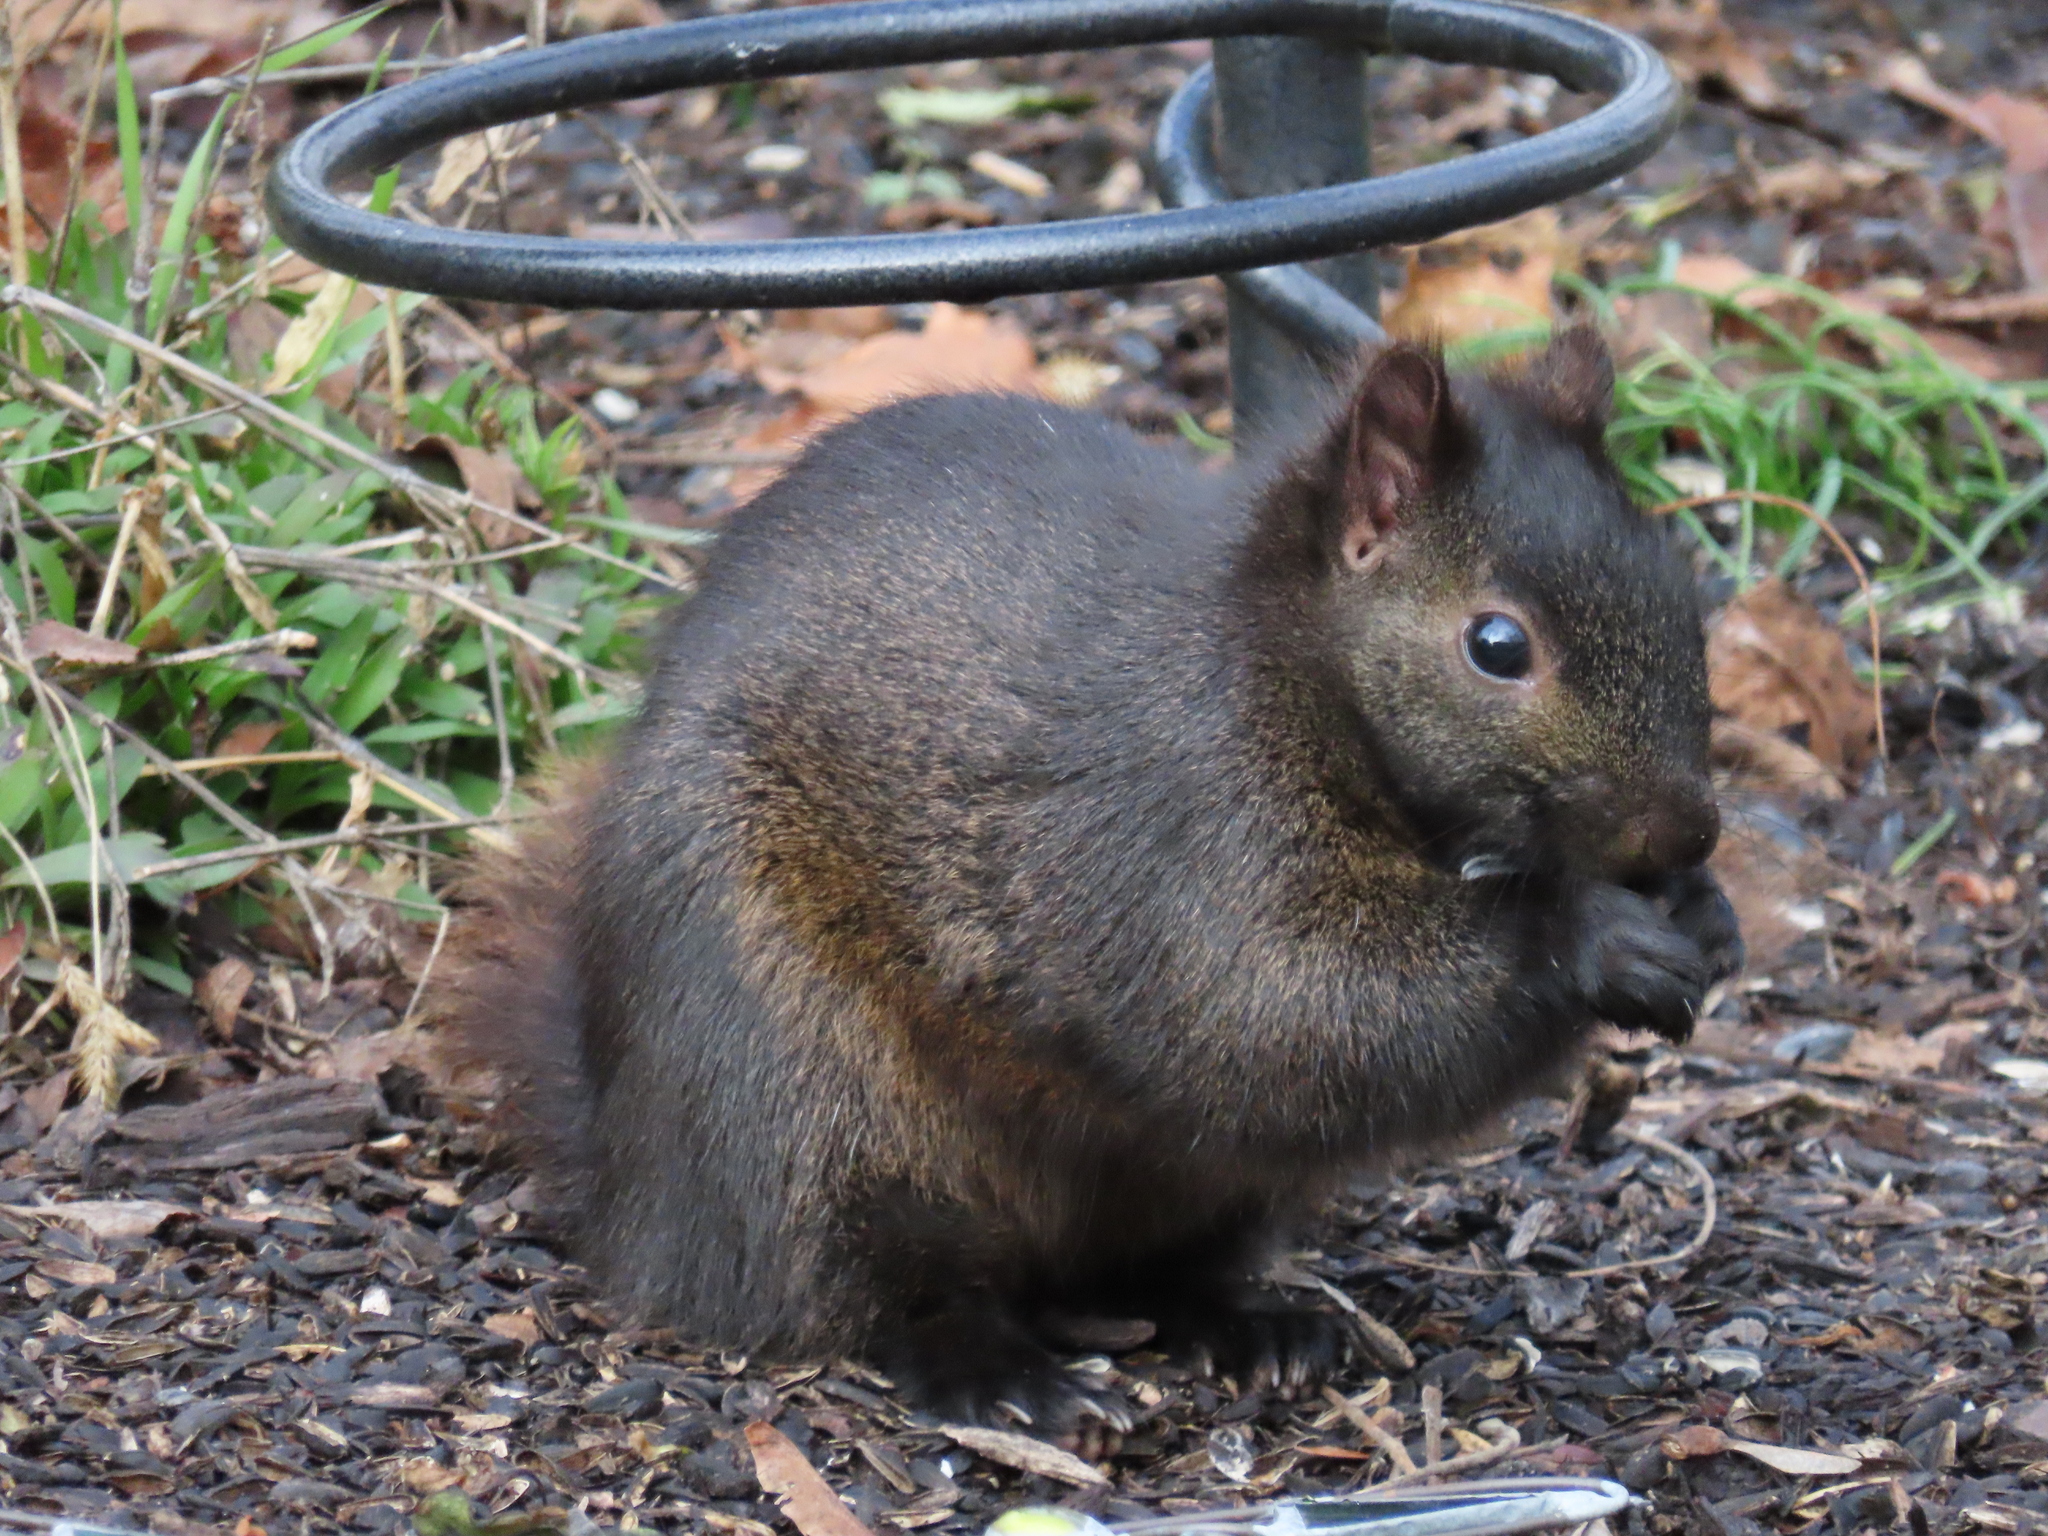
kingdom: Animalia
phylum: Chordata
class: Mammalia
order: Rodentia
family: Sciuridae
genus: Sciurus
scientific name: Sciurus carolinensis
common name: Eastern gray squirrel
